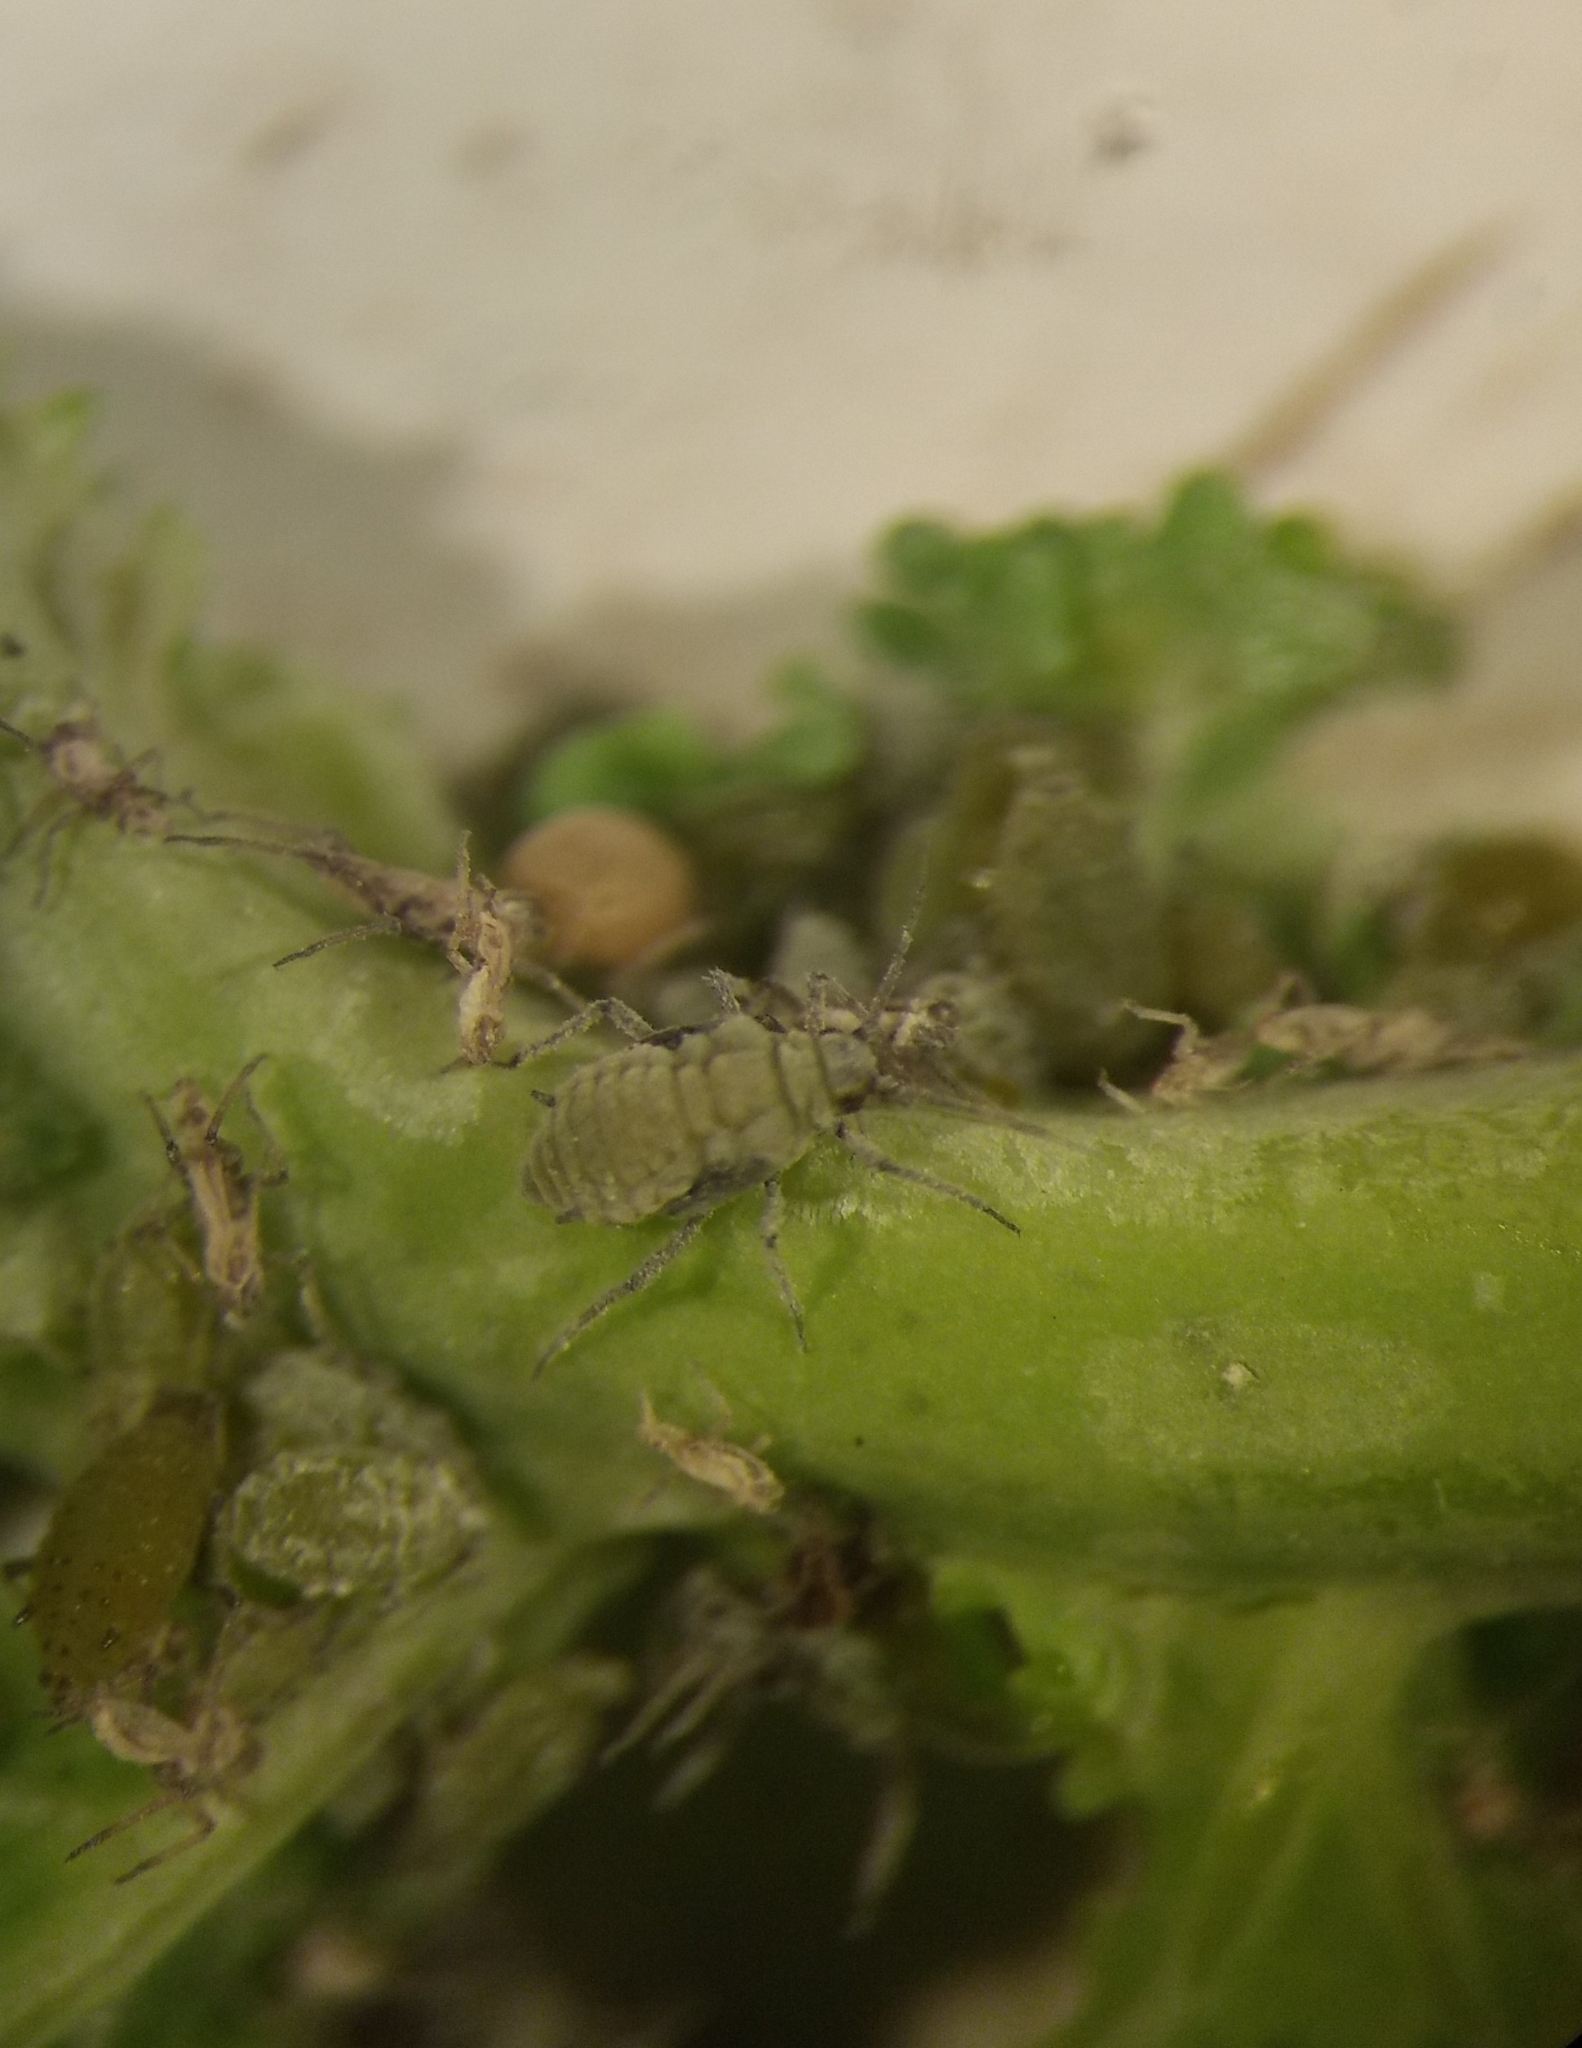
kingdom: Animalia
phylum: Arthropoda
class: Insecta
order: Hemiptera
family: Aphididae
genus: Brevicoryne
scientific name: Brevicoryne brassicae
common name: Cabbage aphid
